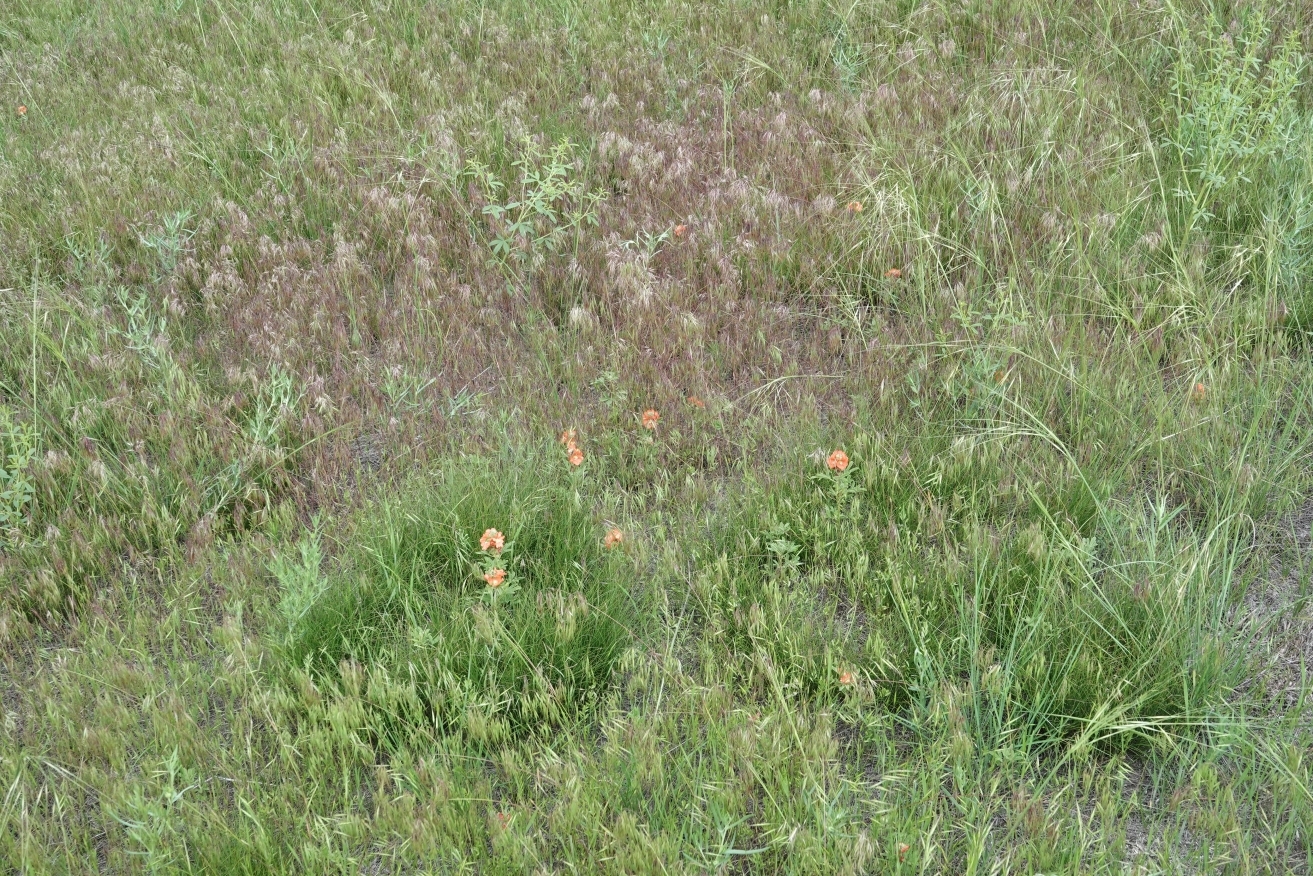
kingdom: Plantae
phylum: Tracheophyta
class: Magnoliopsida
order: Malvales
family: Malvaceae
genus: Sphaeralcea
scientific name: Sphaeralcea coccinea
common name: Moss-rose
